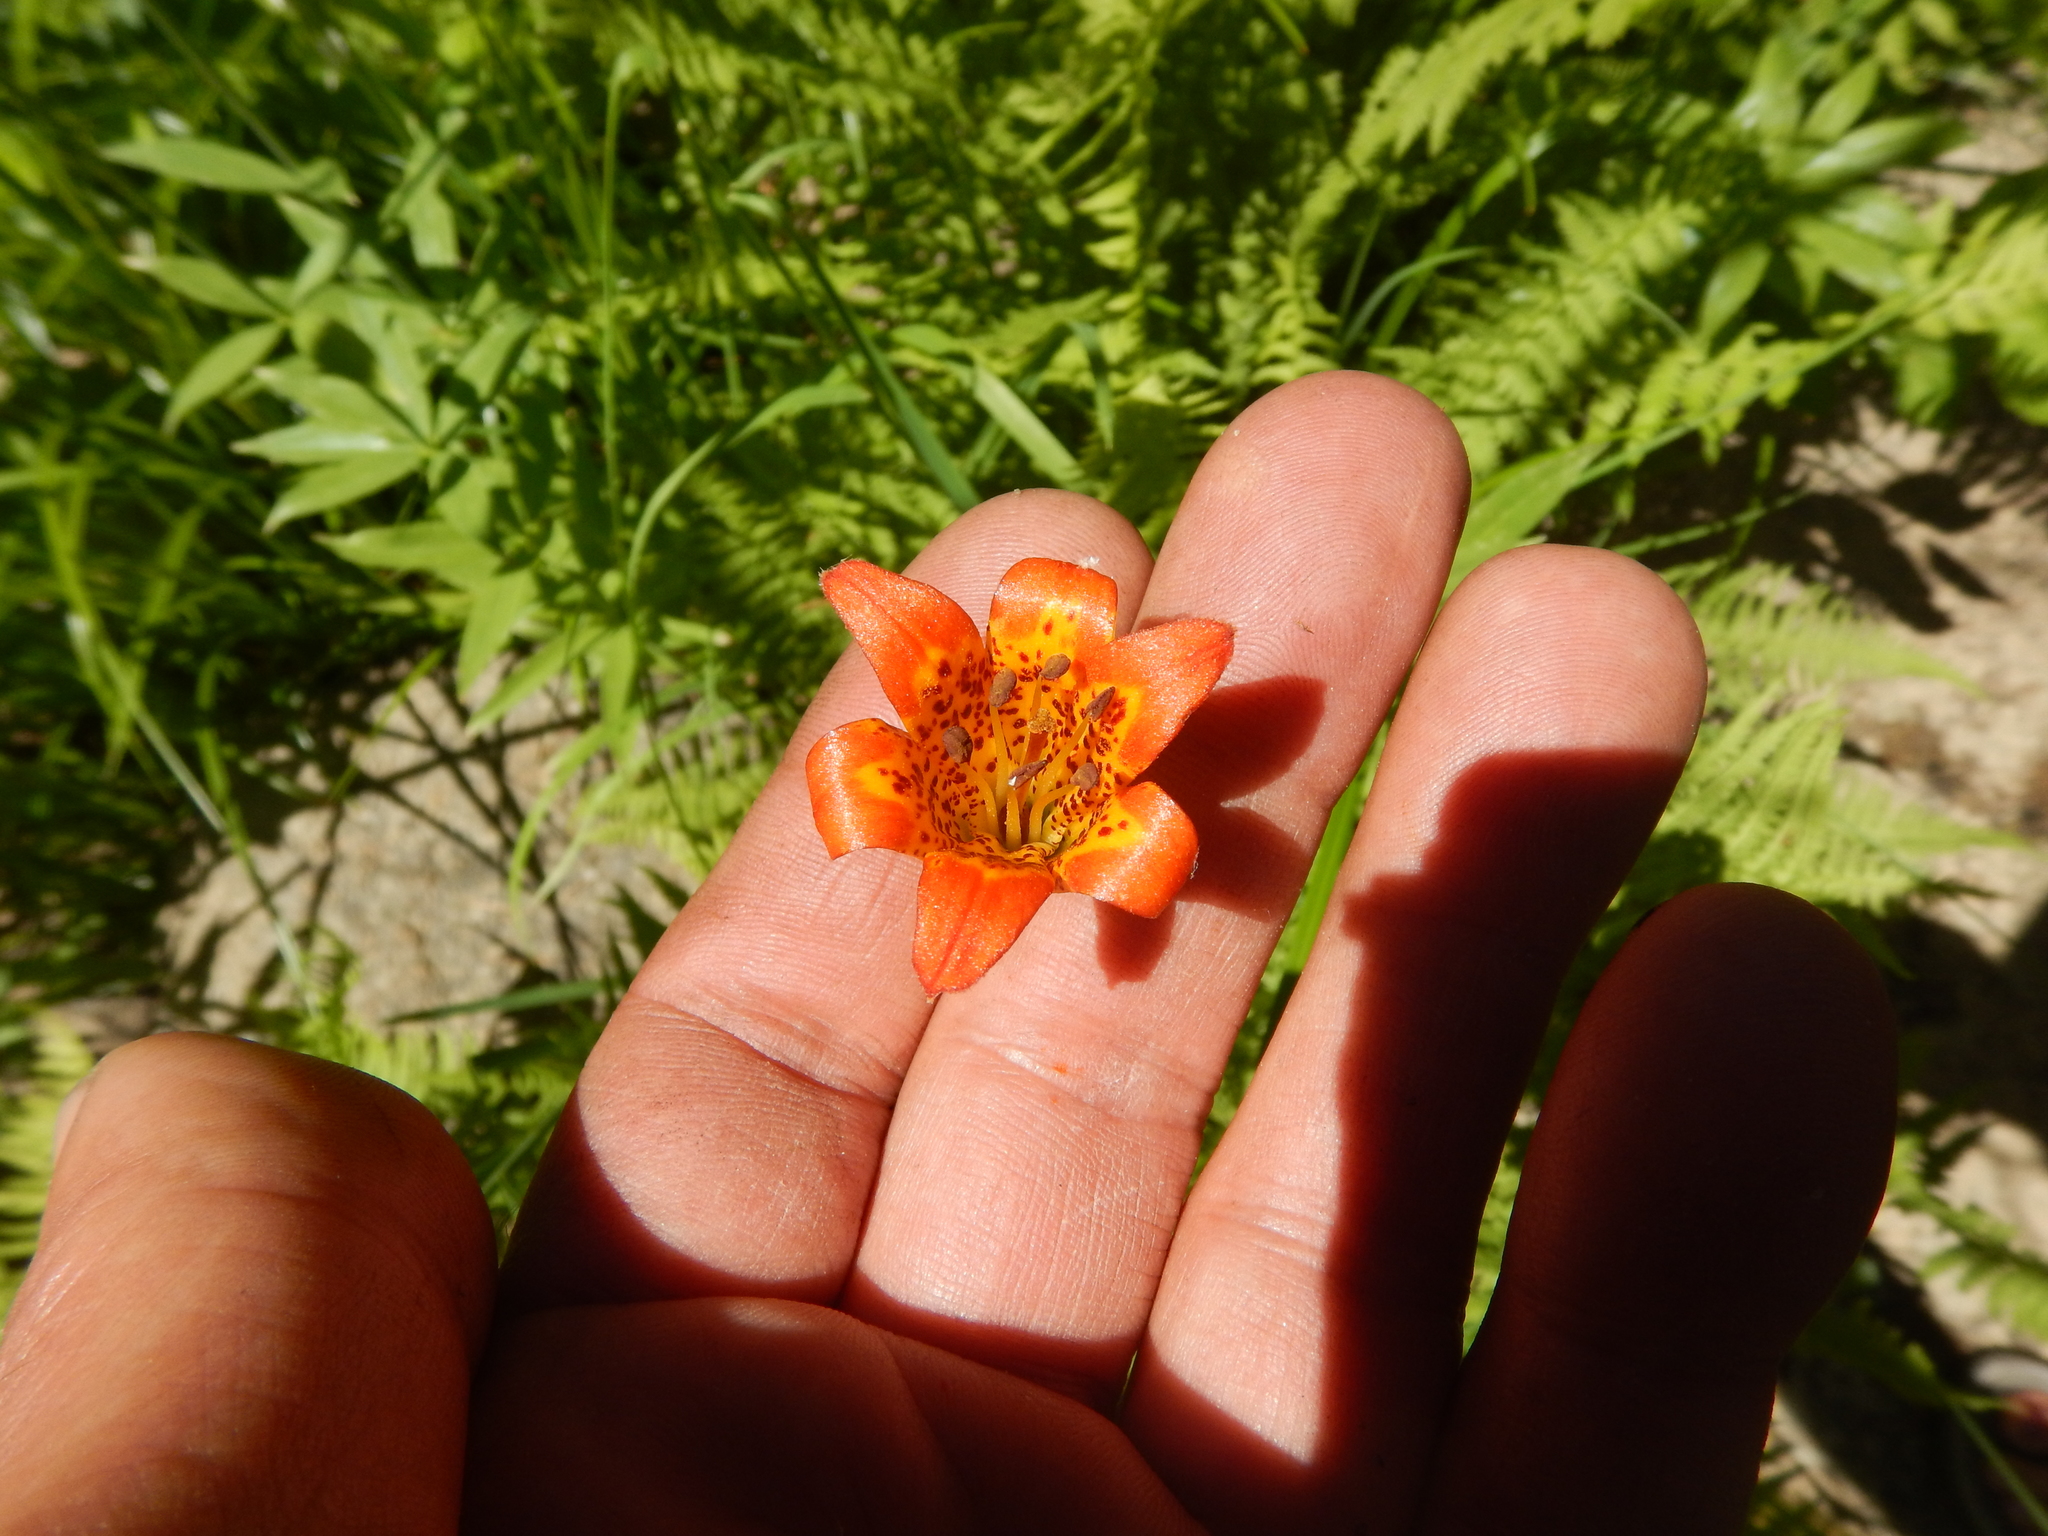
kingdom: Plantae
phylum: Tracheophyta
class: Liliopsida
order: Liliales
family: Liliaceae
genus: Lilium
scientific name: Lilium parvum
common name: Alpine lily
